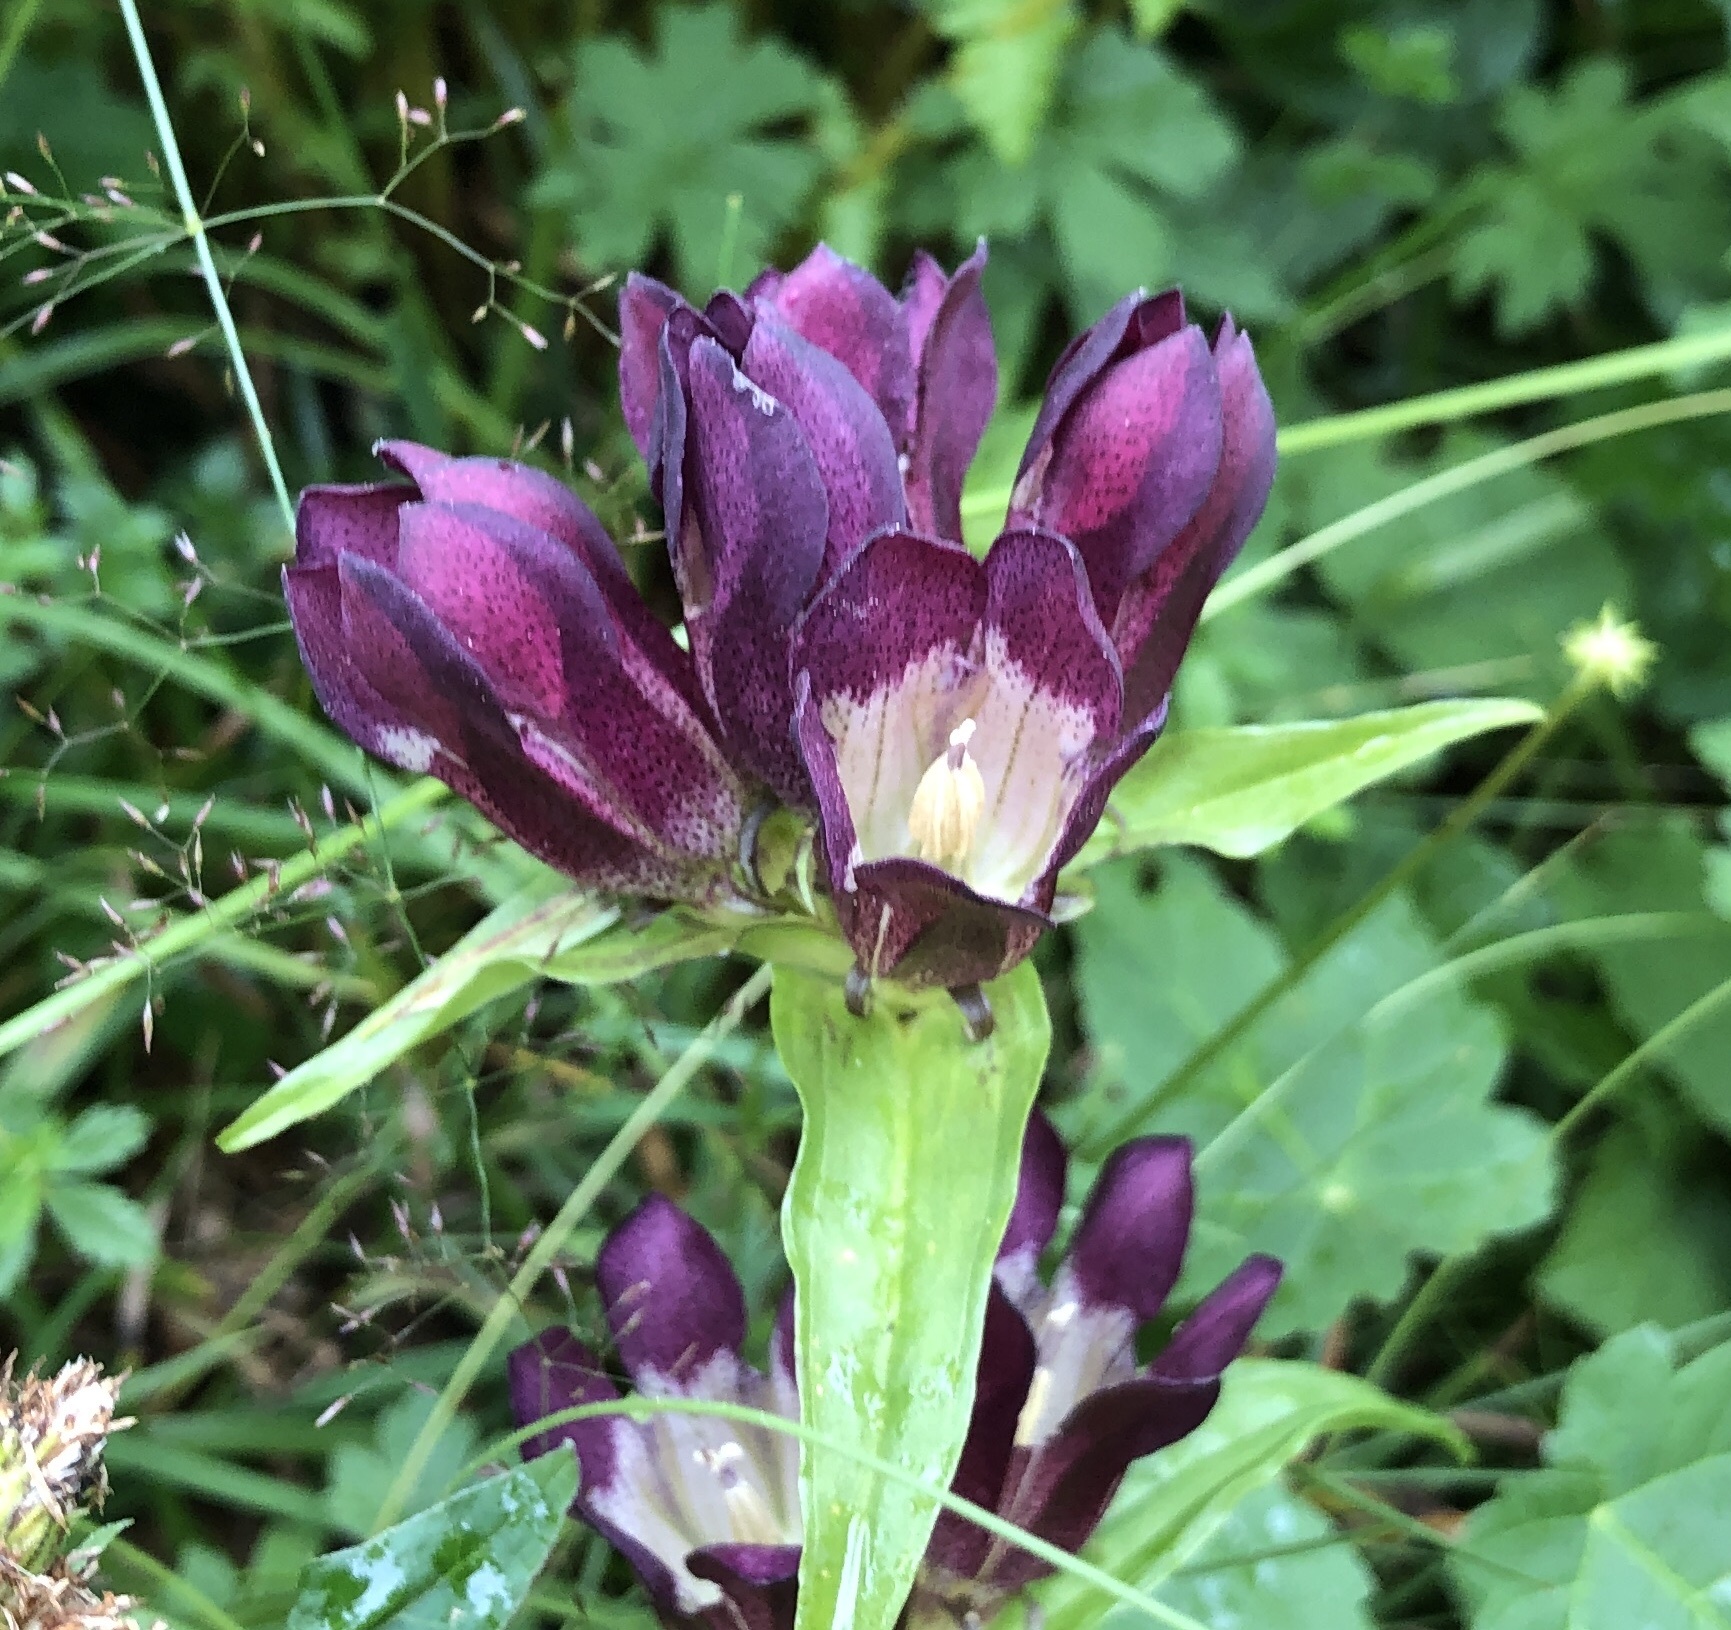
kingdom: Plantae
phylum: Tracheophyta
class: Magnoliopsida
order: Gentianales
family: Gentianaceae
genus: Gentiana
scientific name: Gentiana pannonica
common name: Hungarian gentian
